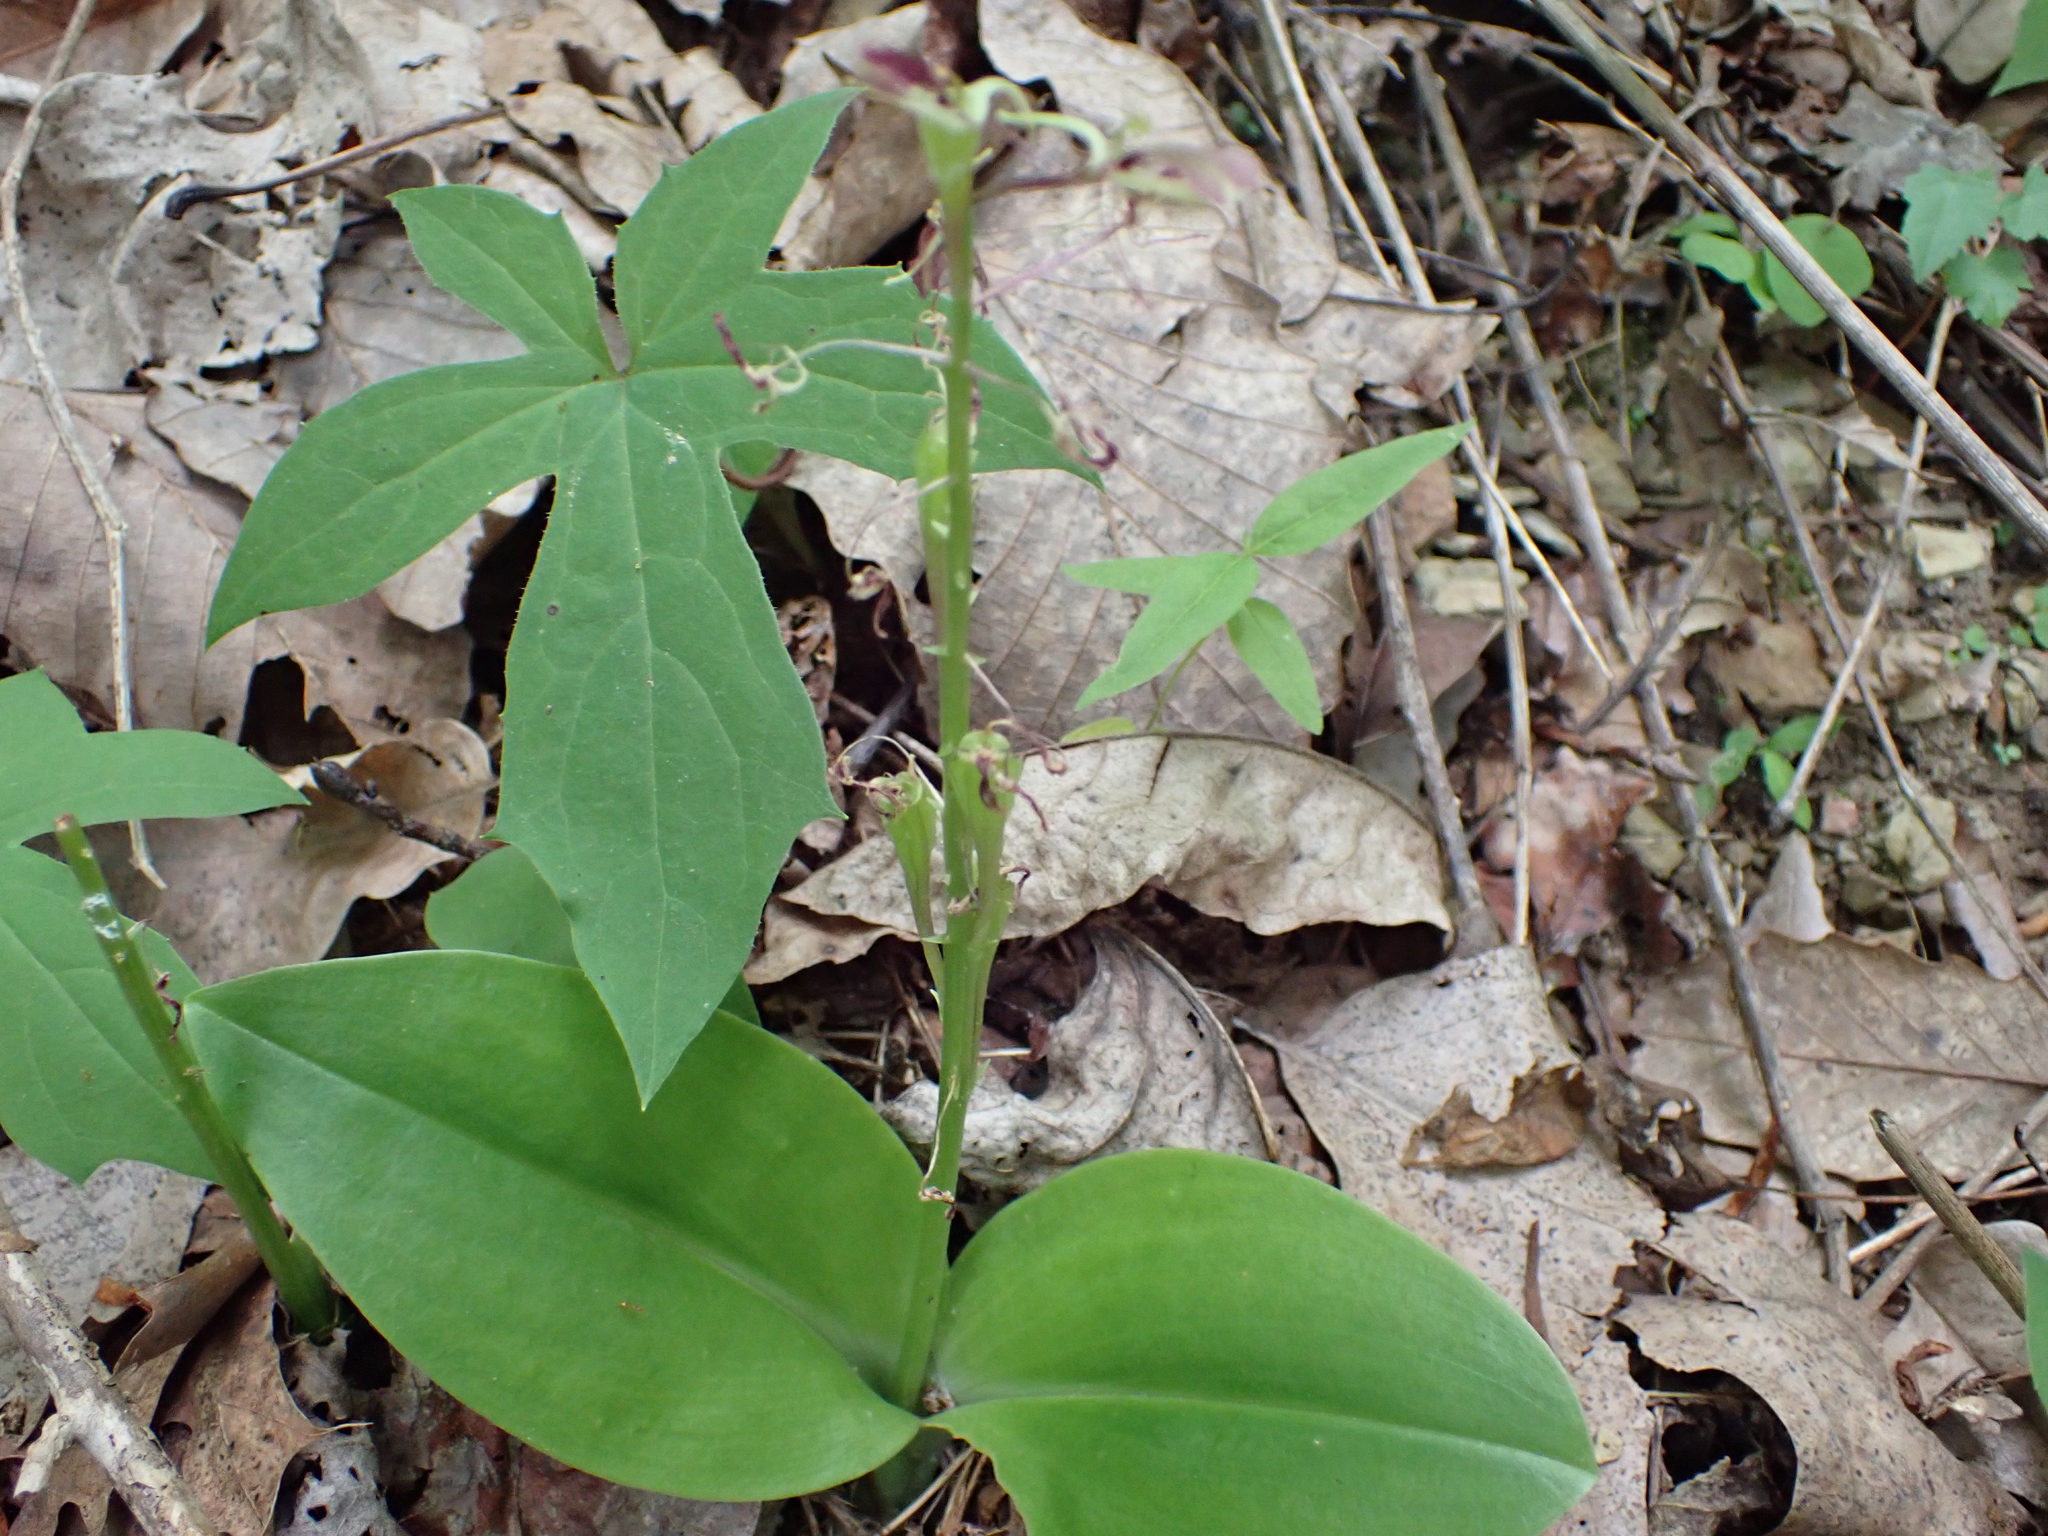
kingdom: Plantae
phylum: Tracheophyta
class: Liliopsida
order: Asparagales
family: Orchidaceae
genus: Liparis
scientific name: Liparis liliifolia
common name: Brown wide-lip orchid
